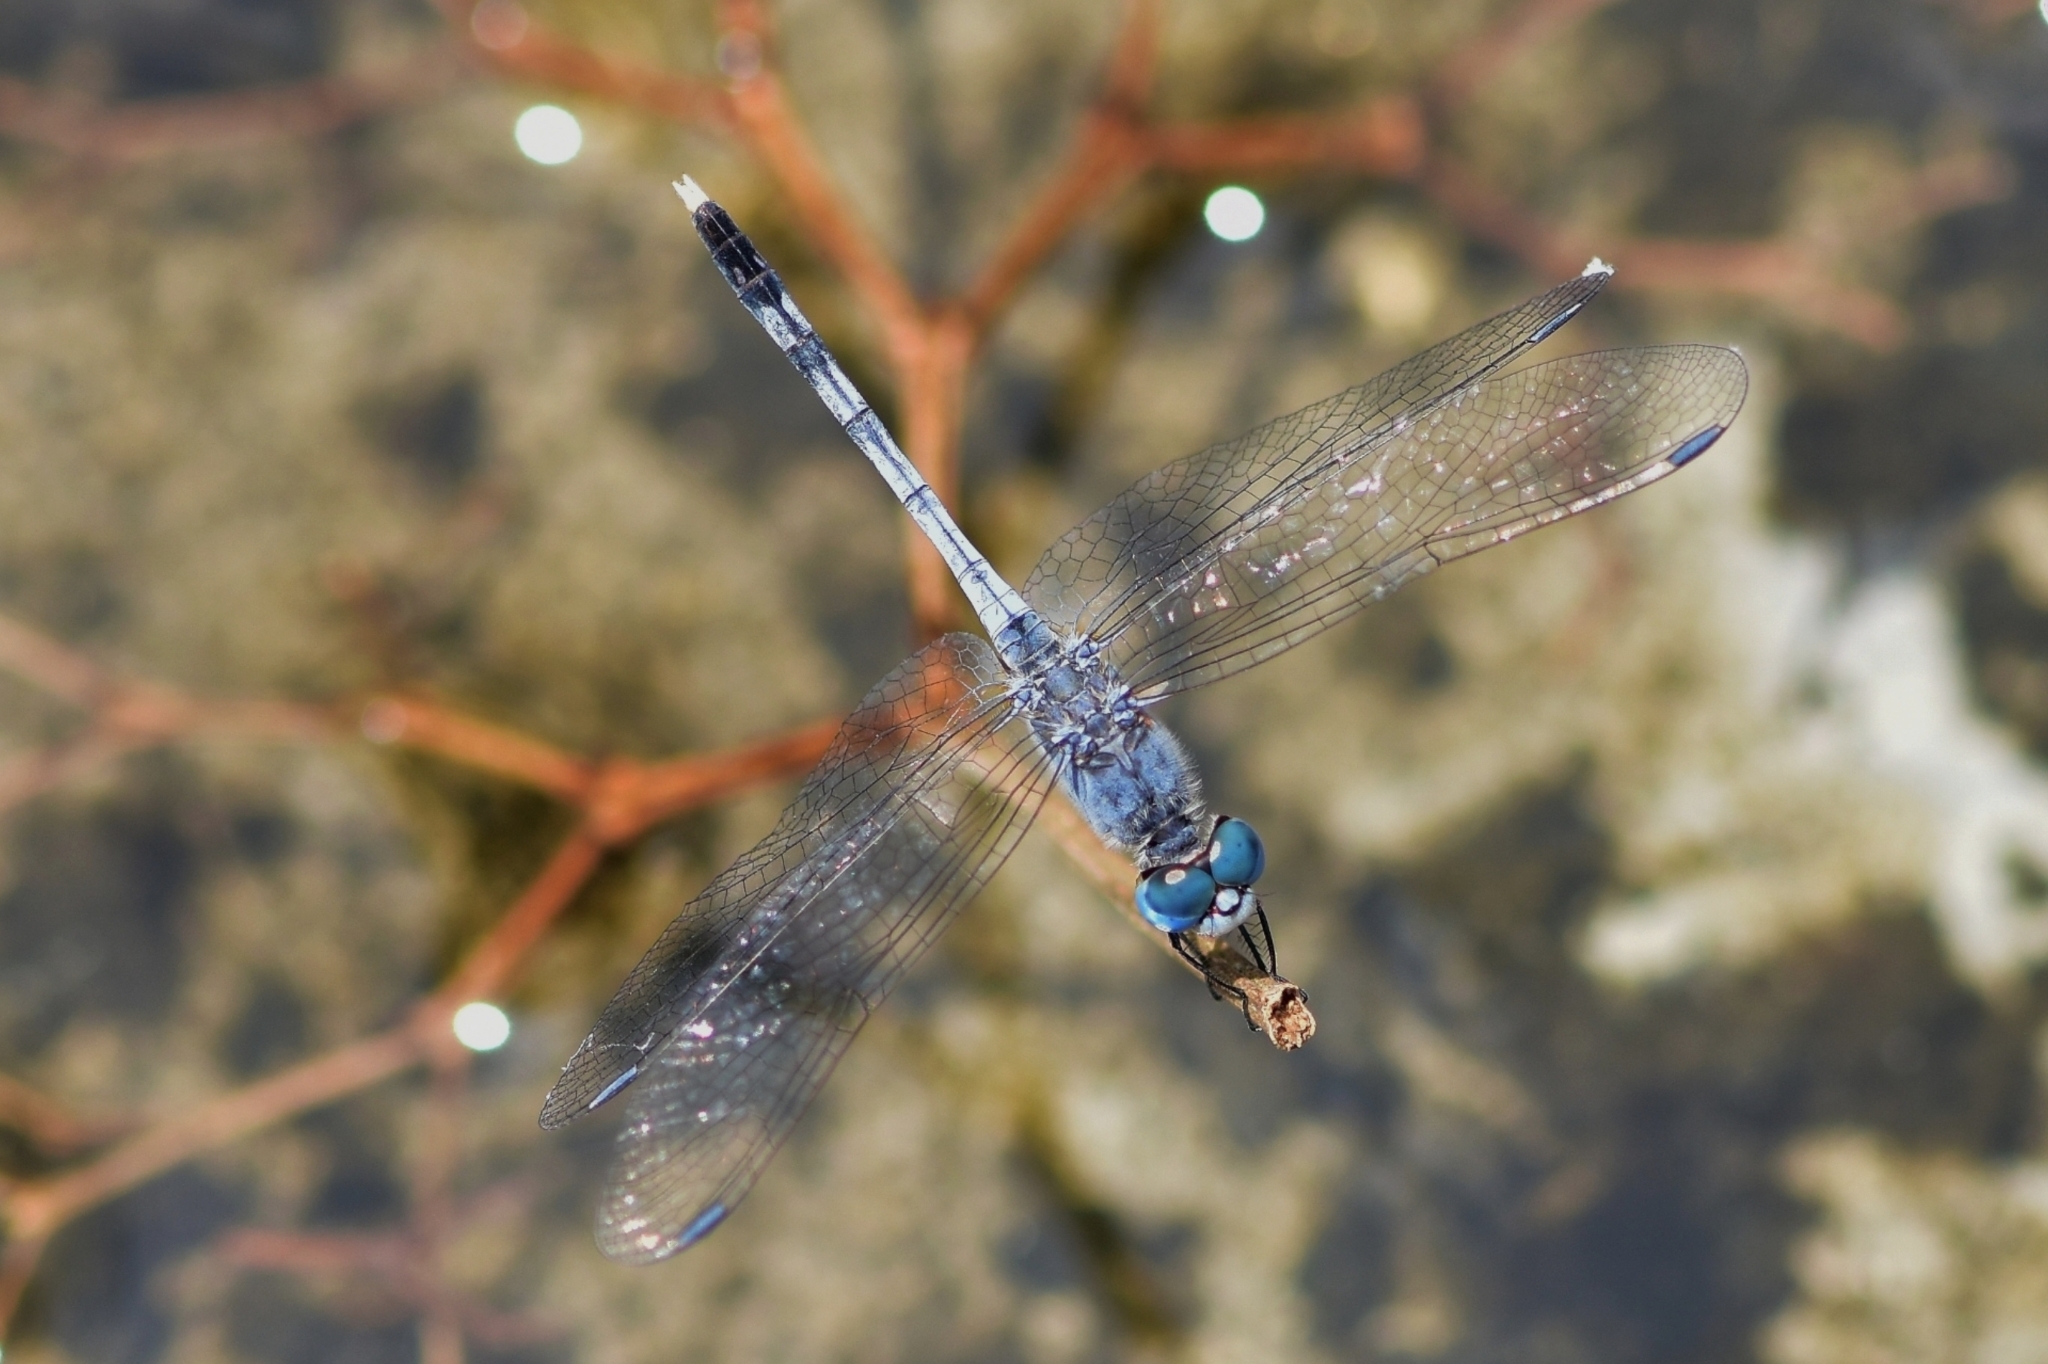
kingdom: Animalia
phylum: Arthropoda
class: Insecta
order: Odonata
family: Libellulidae
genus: Diplacodes
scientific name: Diplacodes trivialis
